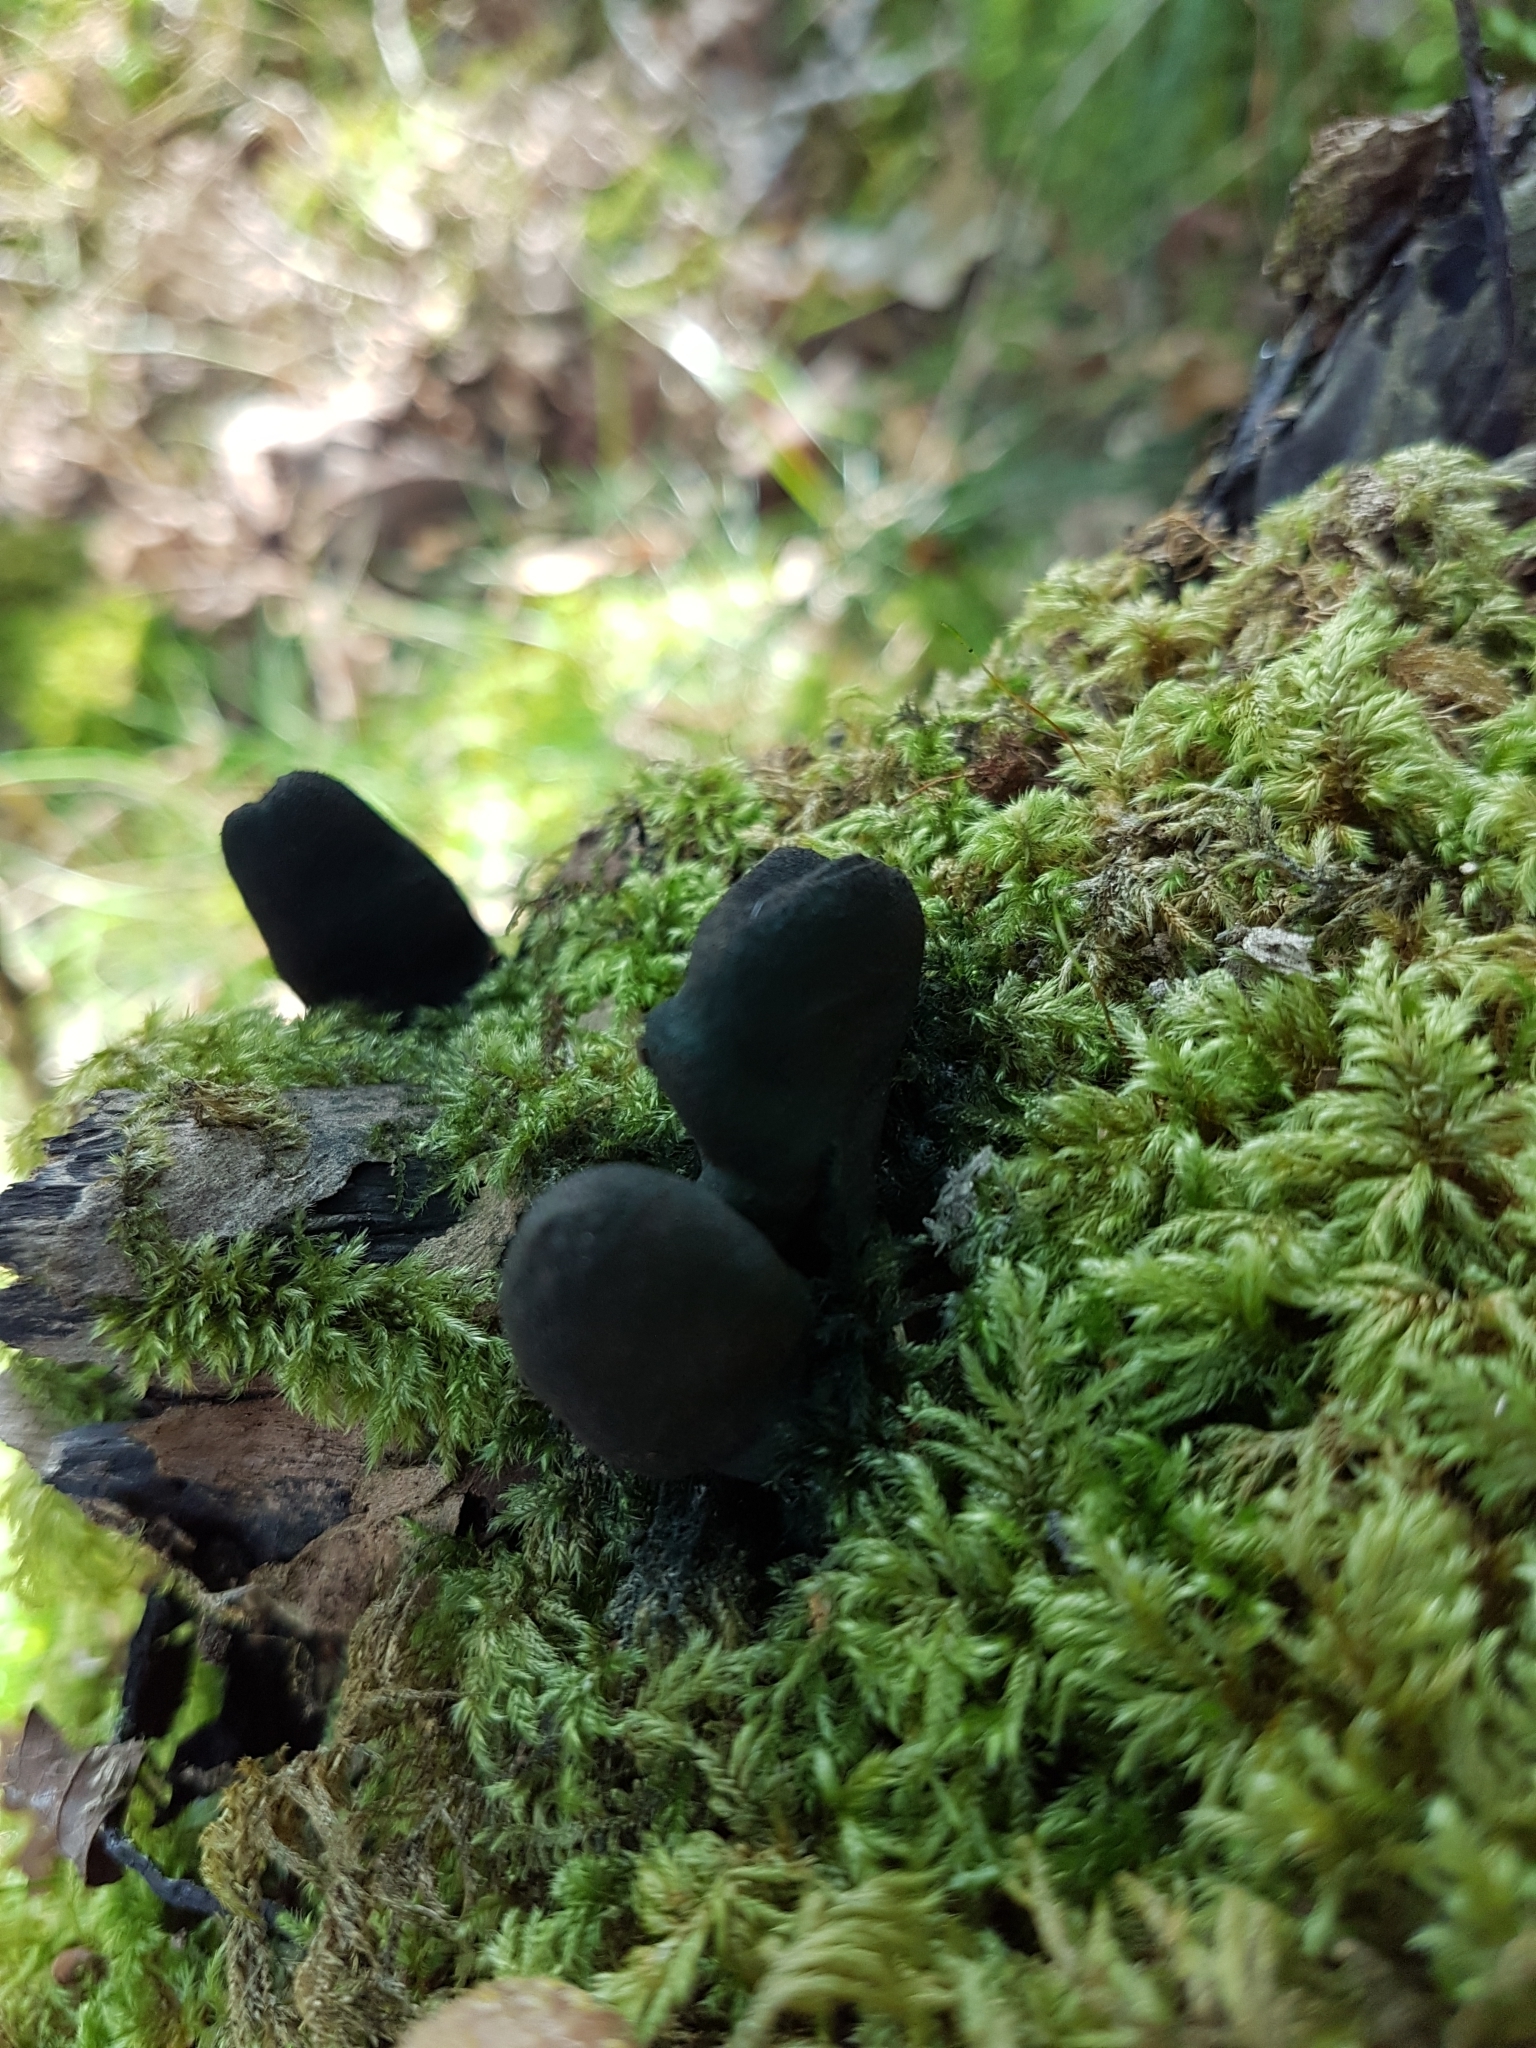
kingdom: Fungi
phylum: Ascomycota
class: Sordariomycetes
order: Xylariales
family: Xylariaceae
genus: Xylaria
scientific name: Xylaria polymorpha
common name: Dead man's fingers
